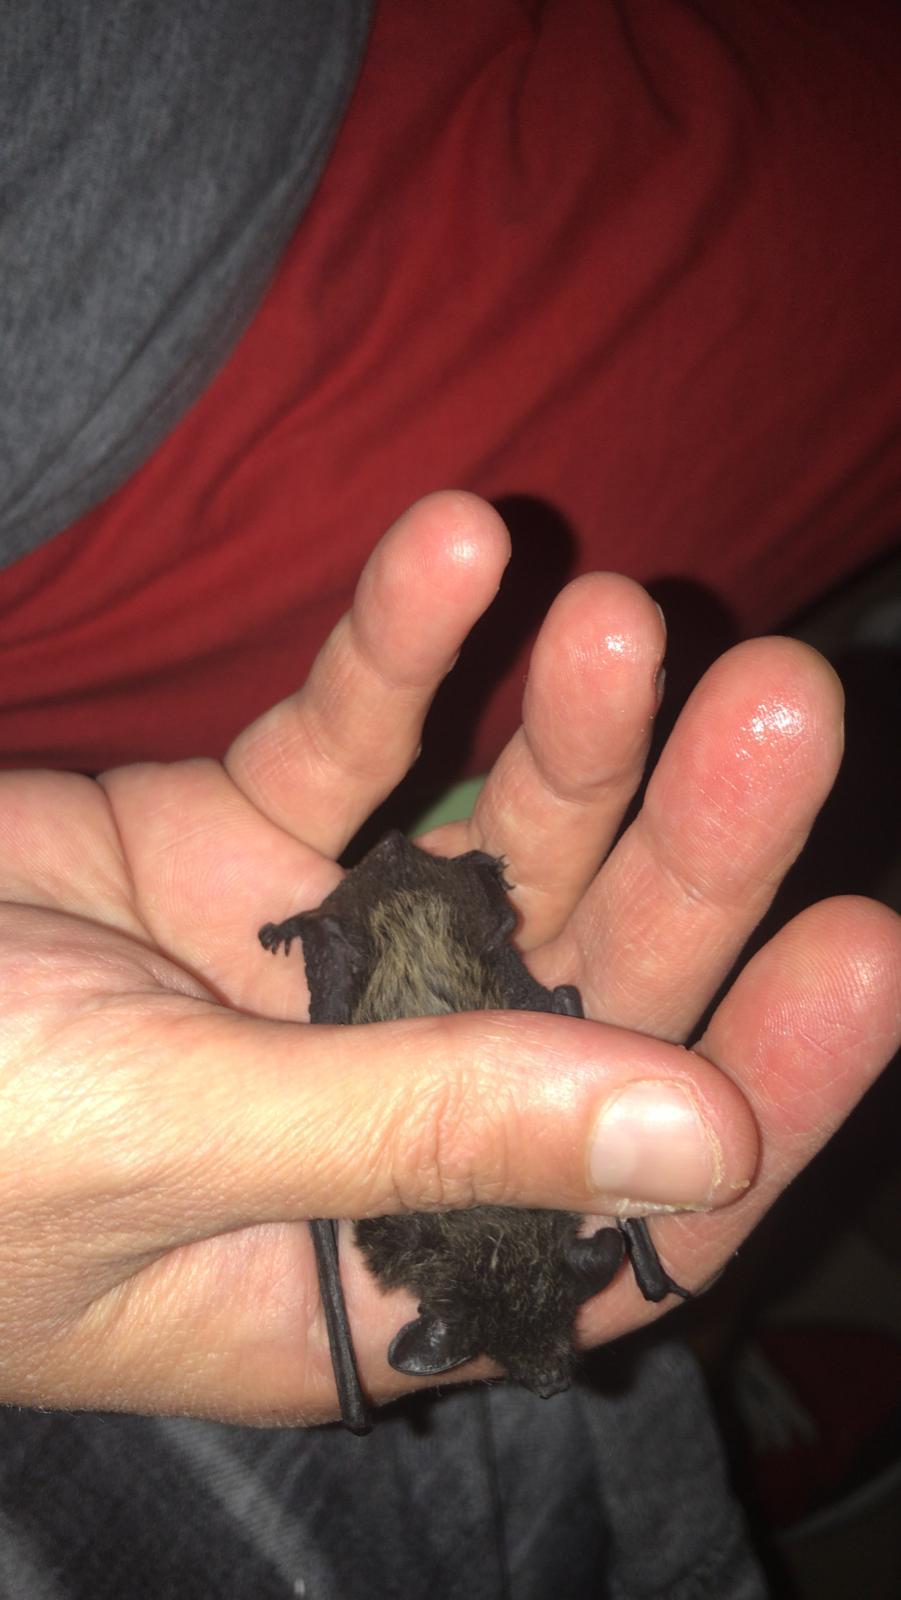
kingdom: Animalia
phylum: Chordata
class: Mammalia
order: Chiroptera
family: Vespertilionidae
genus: Hypsugo
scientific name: Hypsugo savii
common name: Savi's pipistrelle
